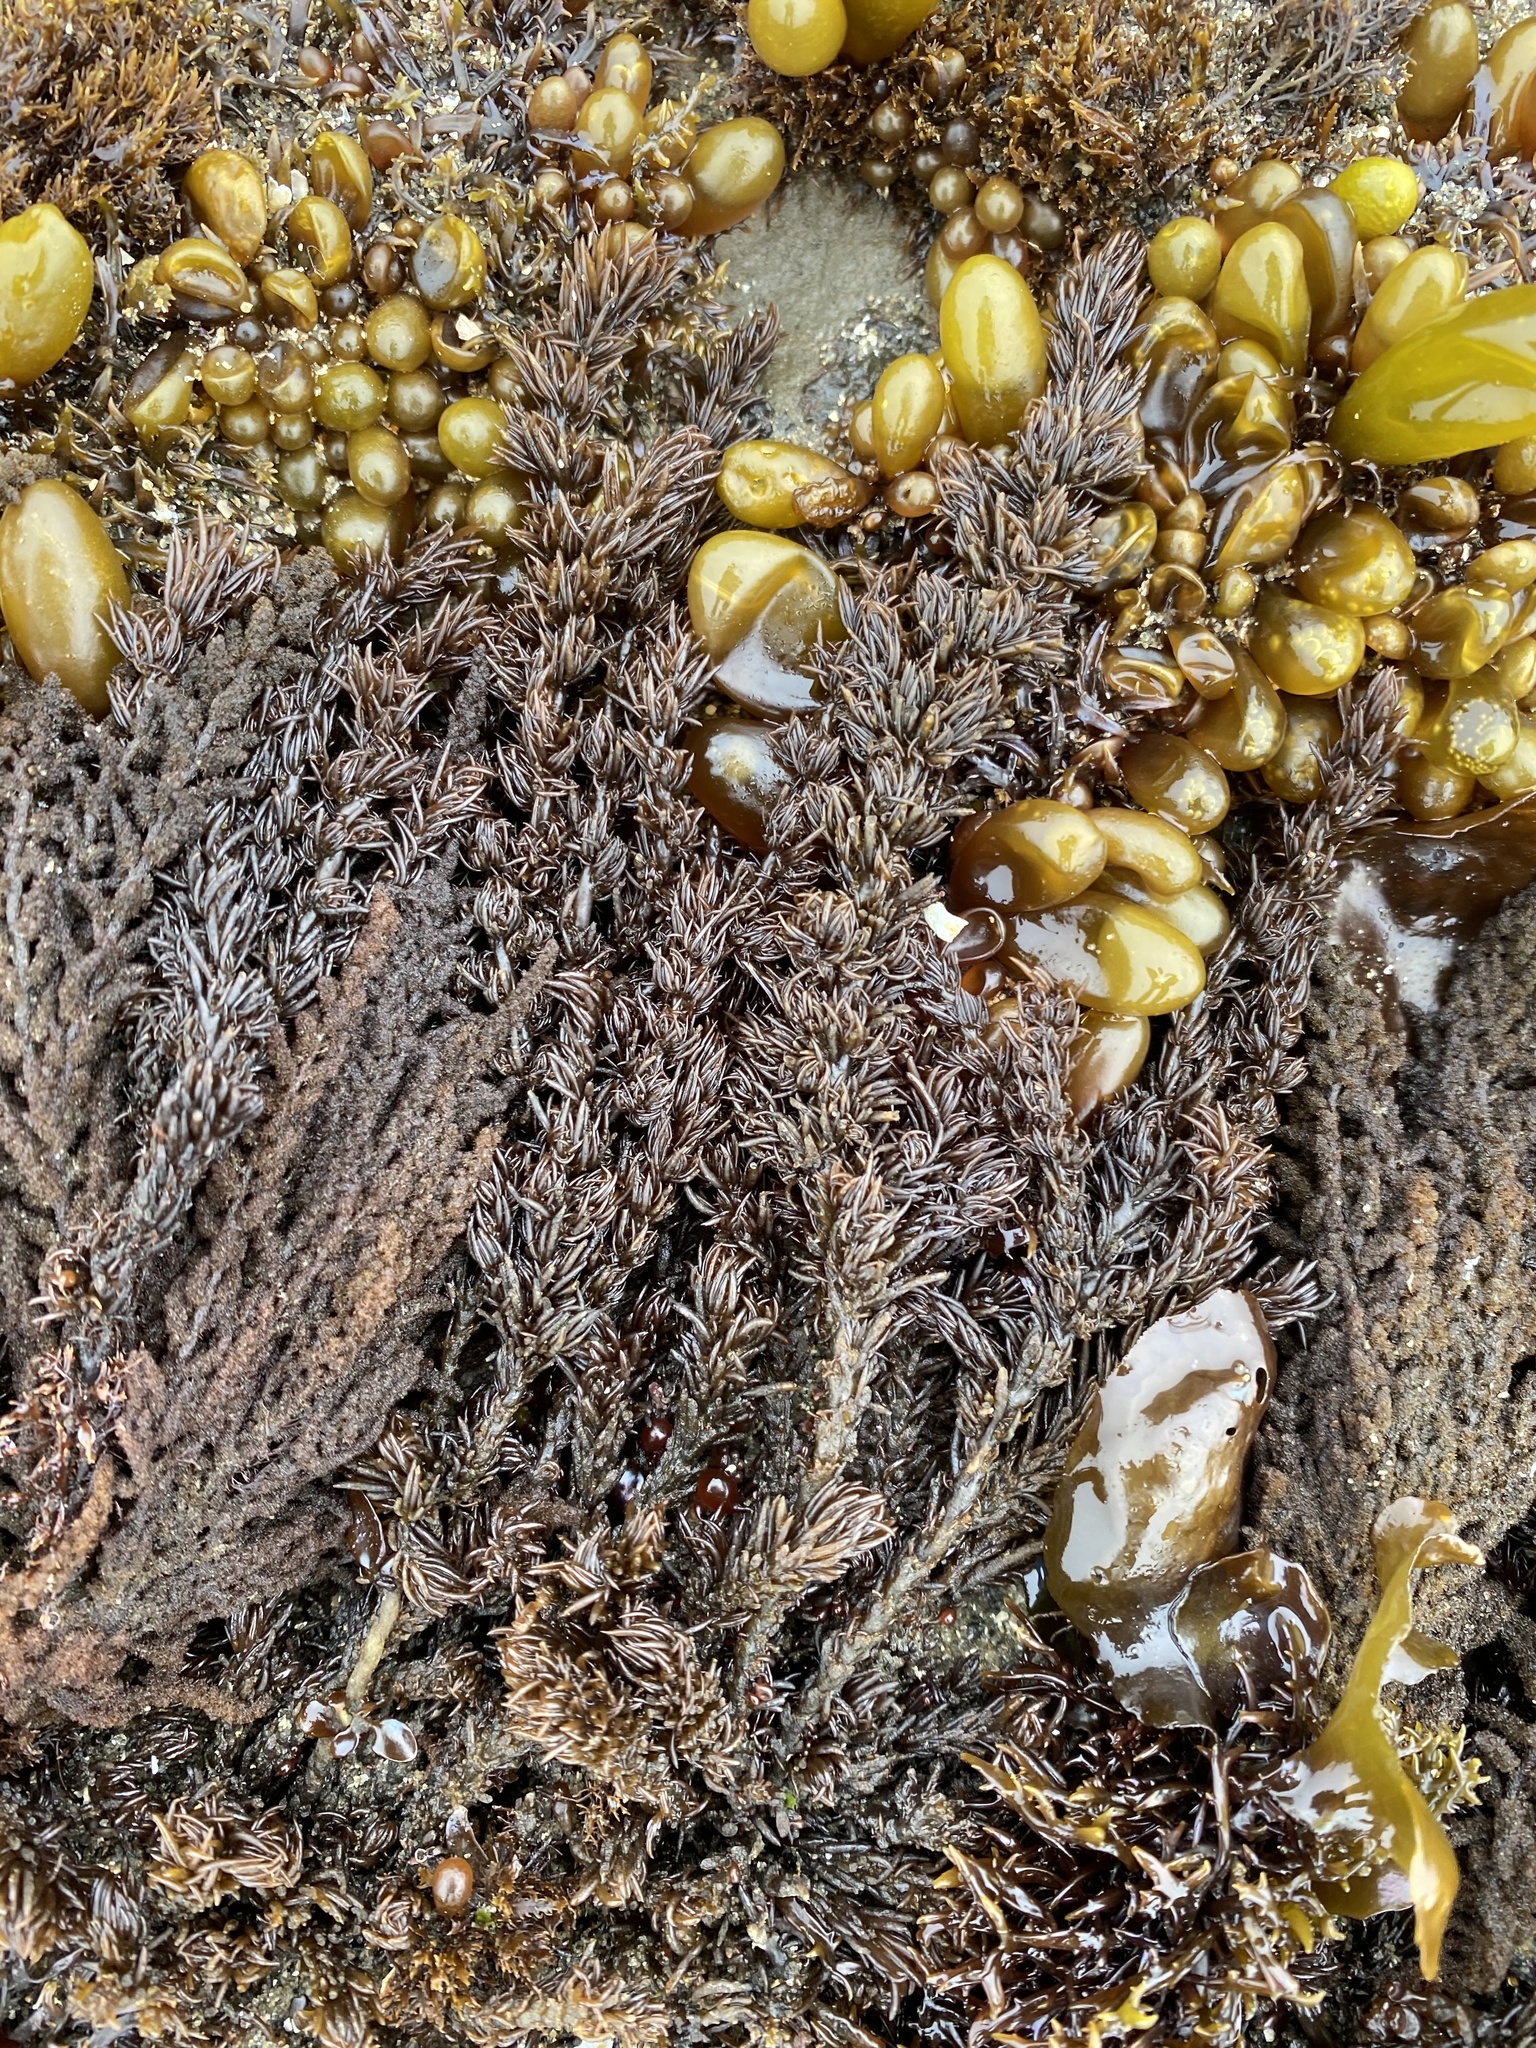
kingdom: Plantae
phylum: Rhodophyta
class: Florideophyceae
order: Ceramiales
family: Rhodomelaceae
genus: Neorhodomela
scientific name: Neorhodomela larix
